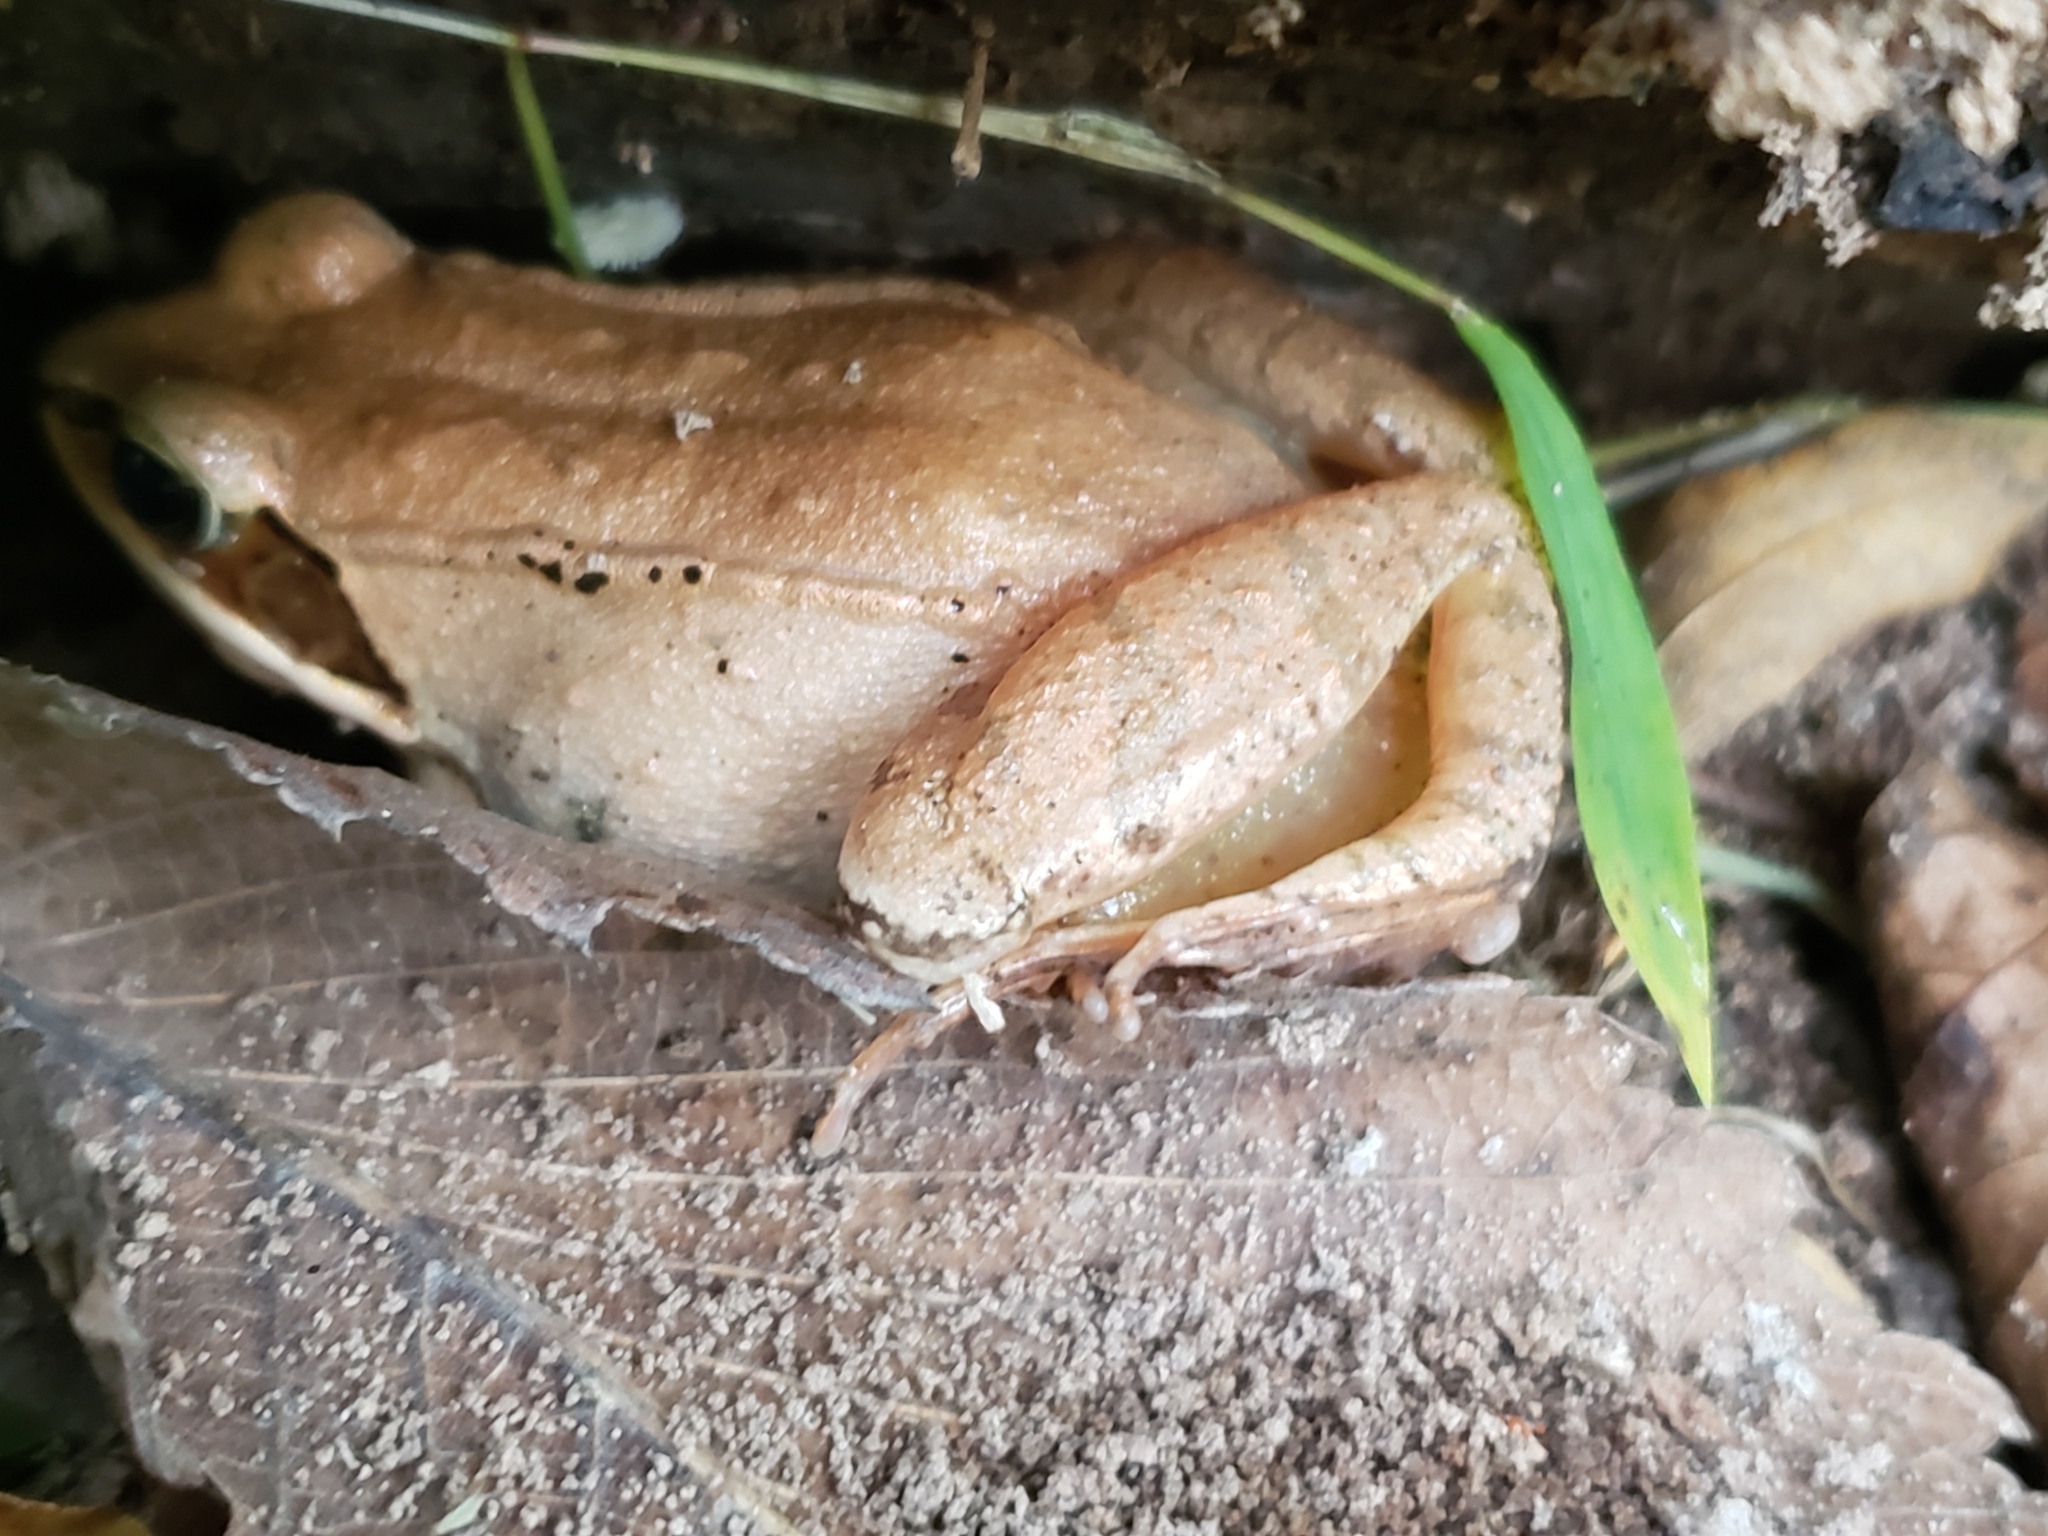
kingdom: Animalia
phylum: Chordata
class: Amphibia
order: Anura
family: Ranidae
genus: Lithobates
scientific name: Lithobates sylvaticus
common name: Wood frog
